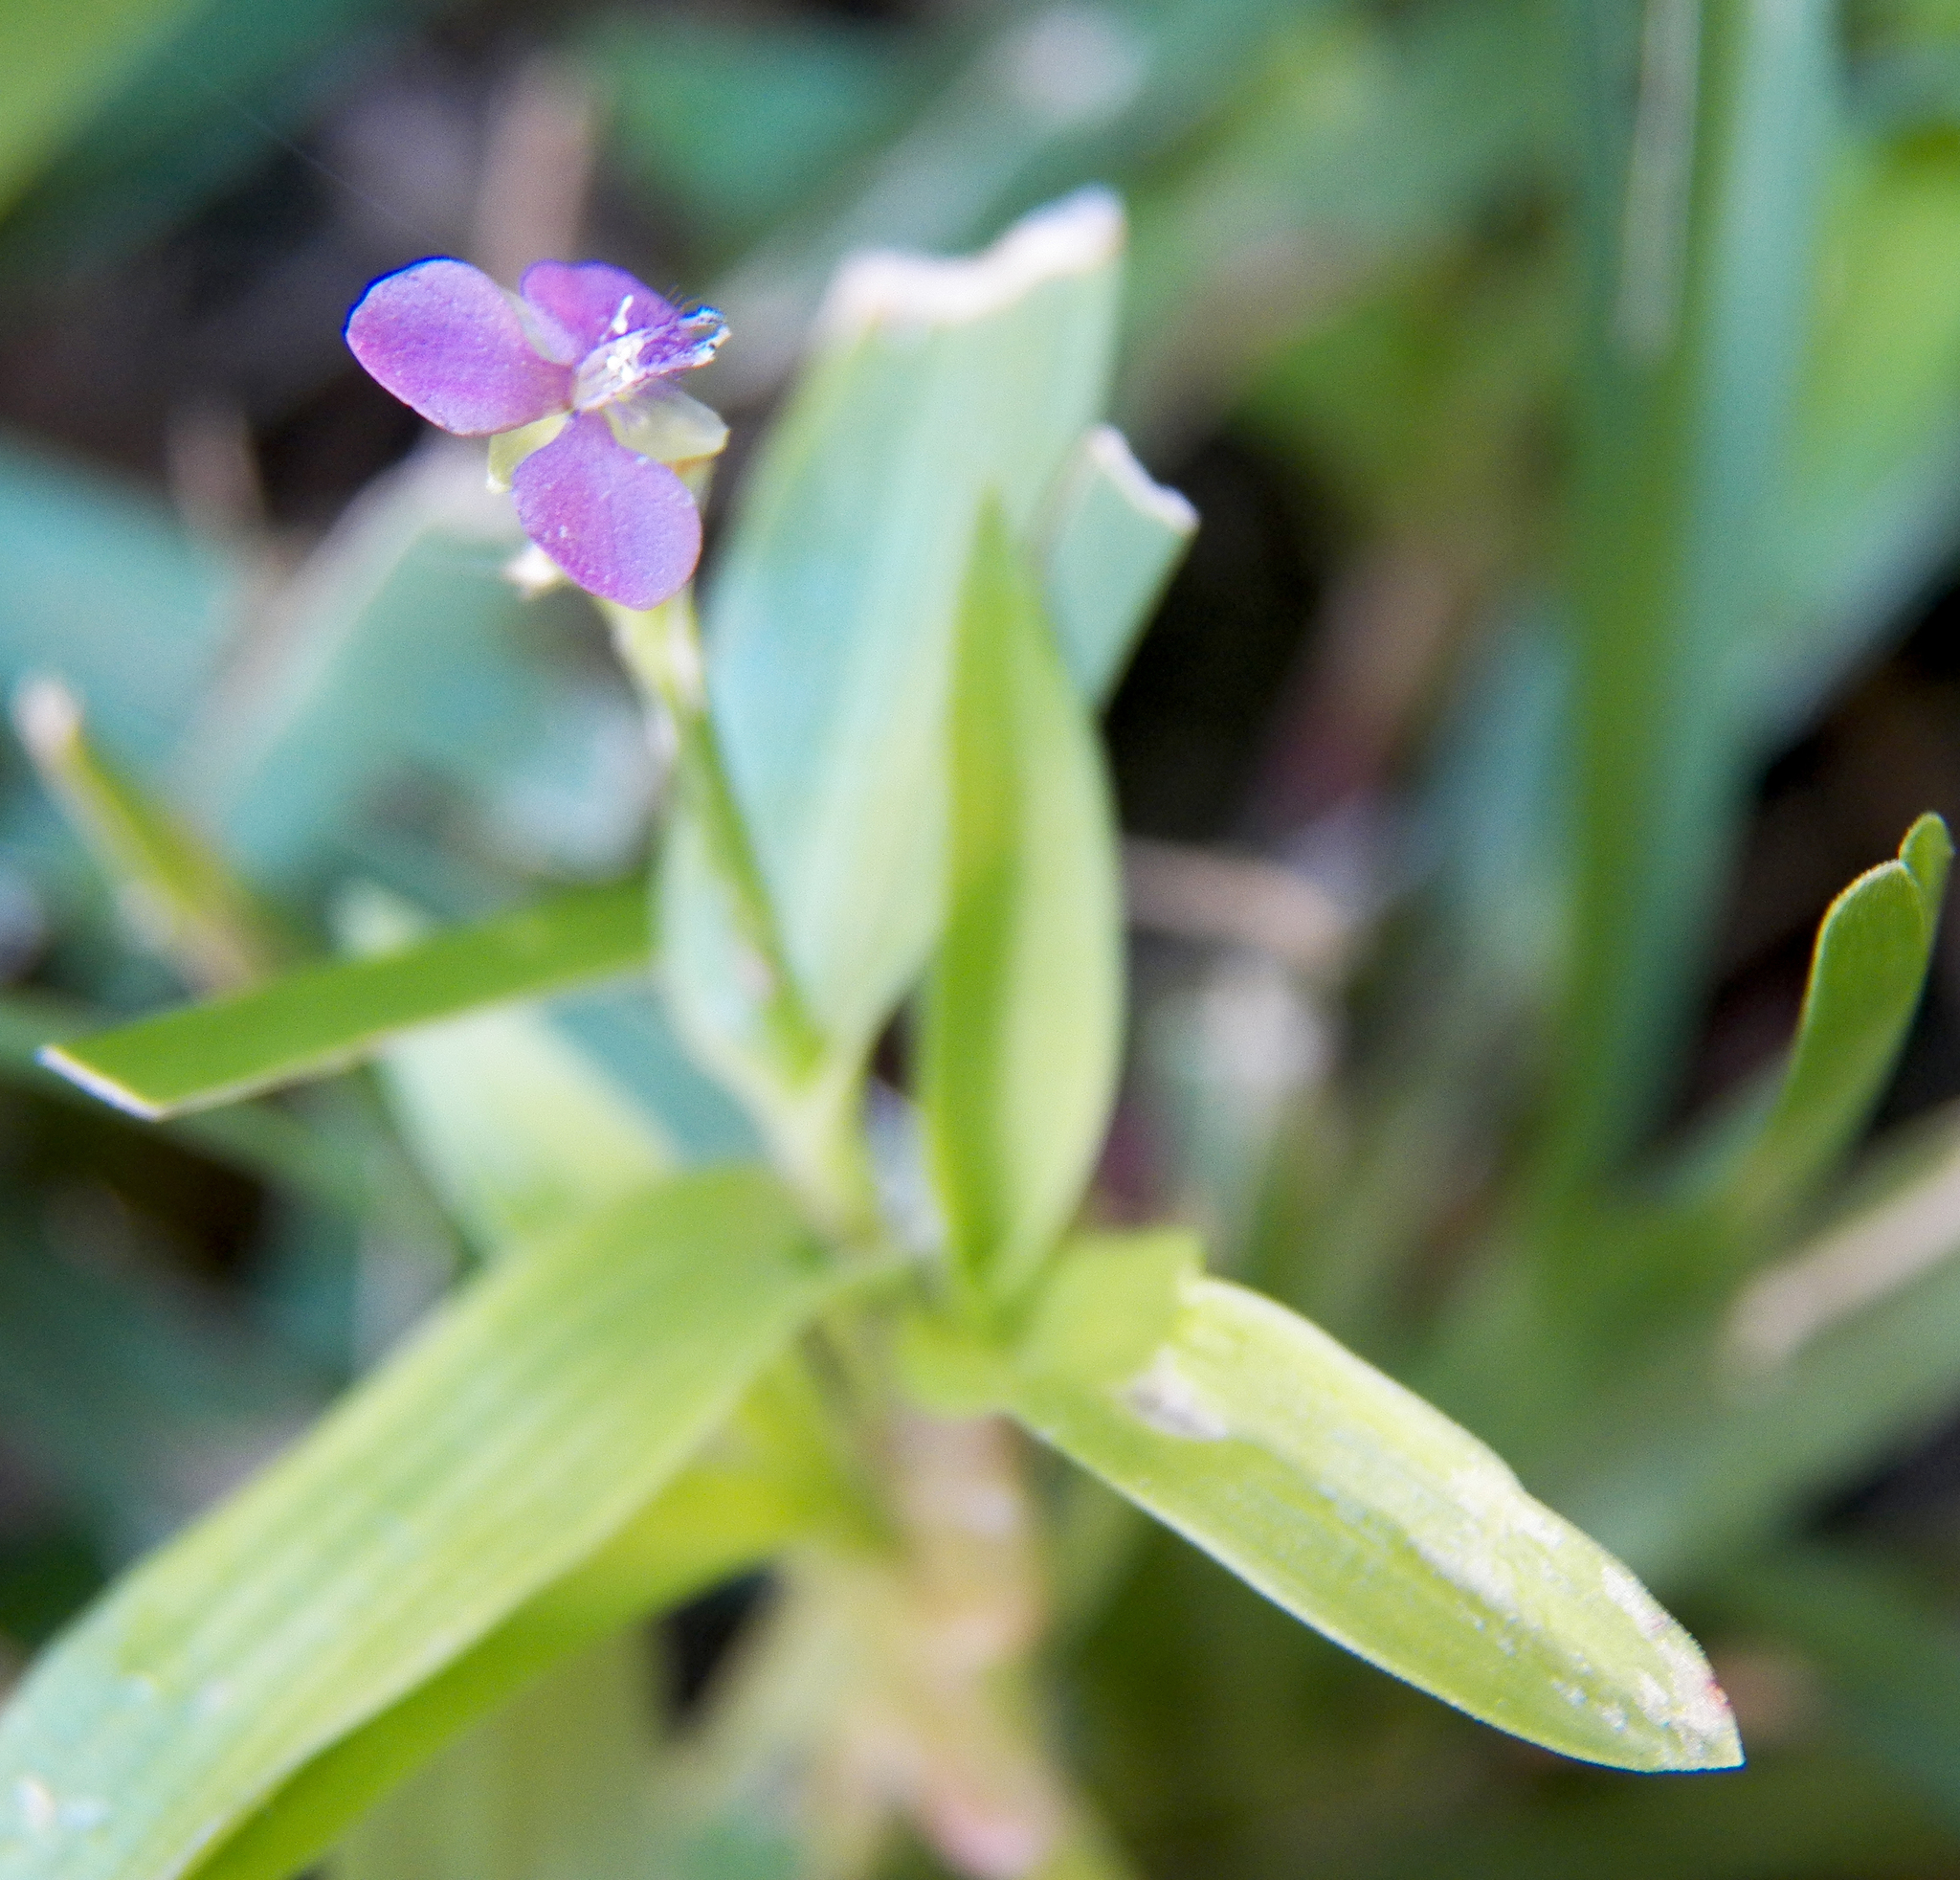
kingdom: Plantae
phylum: Tracheophyta
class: Liliopsida
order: Commelinales
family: Commelinaceae
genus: Murdannia
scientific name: Murdannia nudiflora
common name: Nakedstem dewflower
